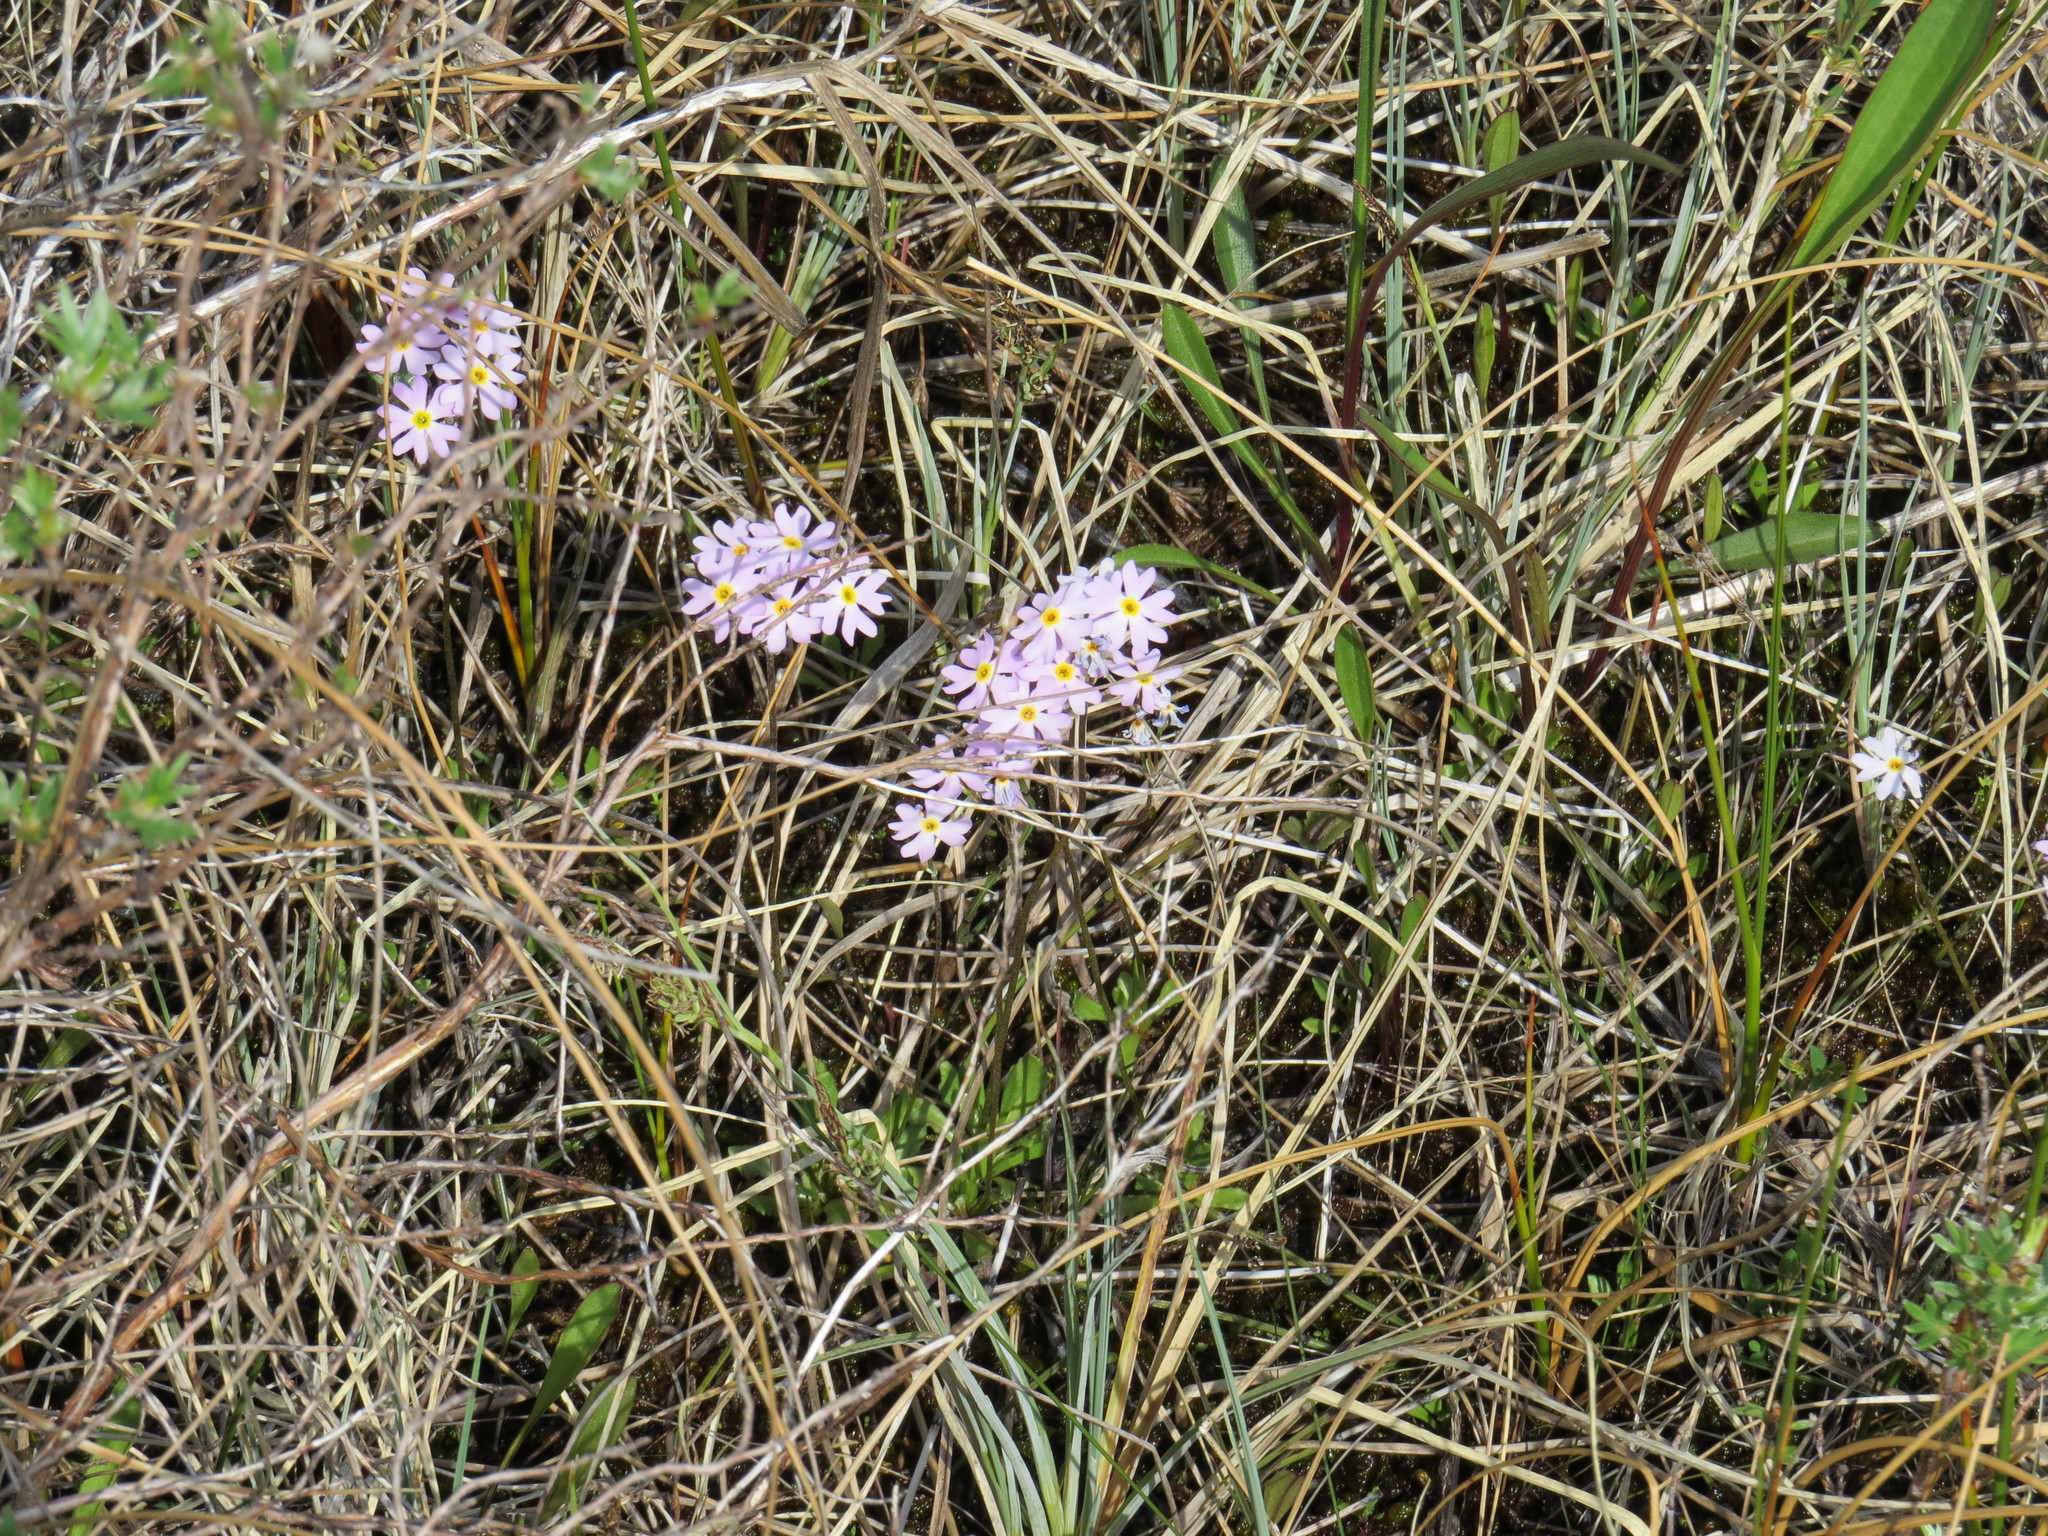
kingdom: Plantae
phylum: Tracheophyta
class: Magnoliopsida
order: Ericales
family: Primulaceae
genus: Primula
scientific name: Primula mistassinica
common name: Bird's-eye primrose
